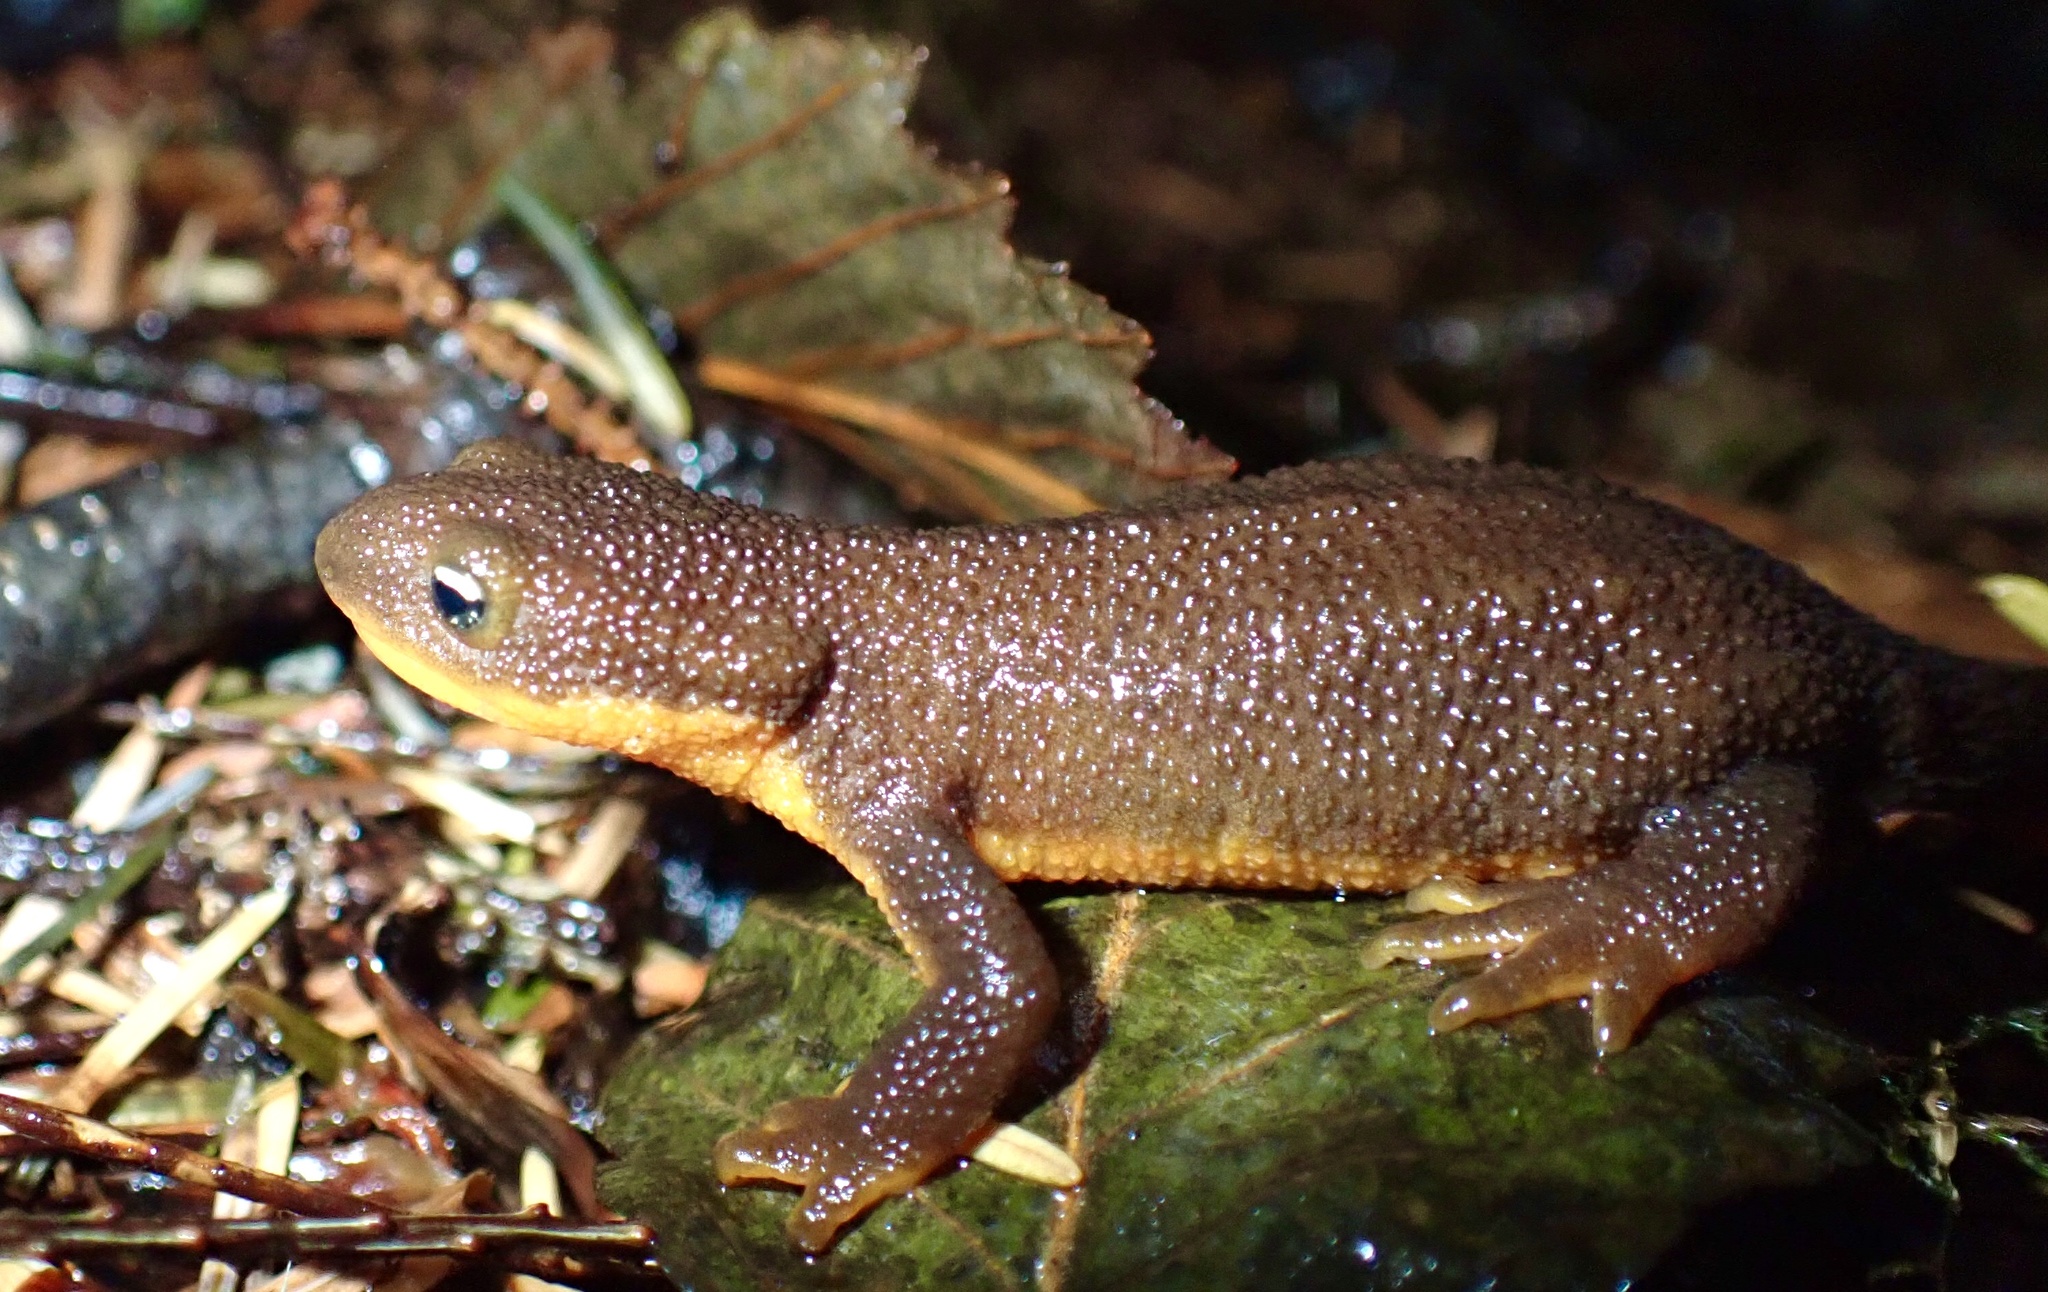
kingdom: Animalia
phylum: Chordata
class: Amphibia
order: Caudata
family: Salamandridae
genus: Taricha
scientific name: Taricha granulosa
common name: Roughskin newt
